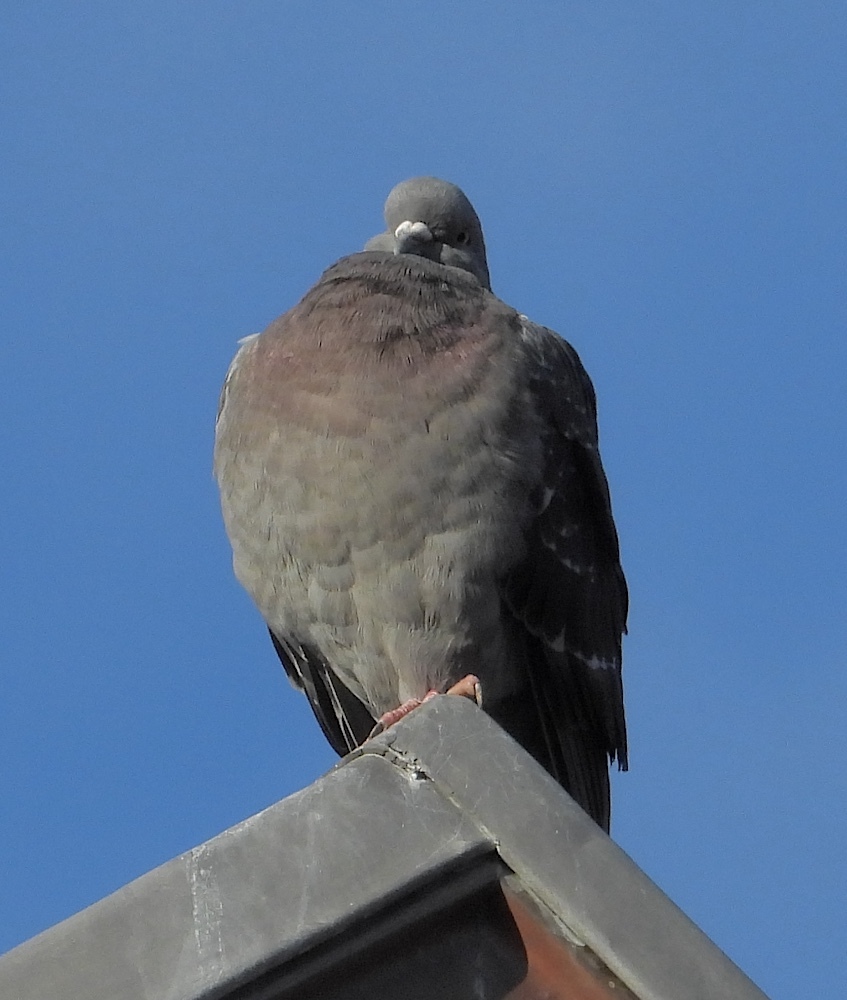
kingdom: Animalia
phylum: Chordata
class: Aves
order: Columbiformes
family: Columbidae
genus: Columba
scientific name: Columba livia
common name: Rock pigeon
